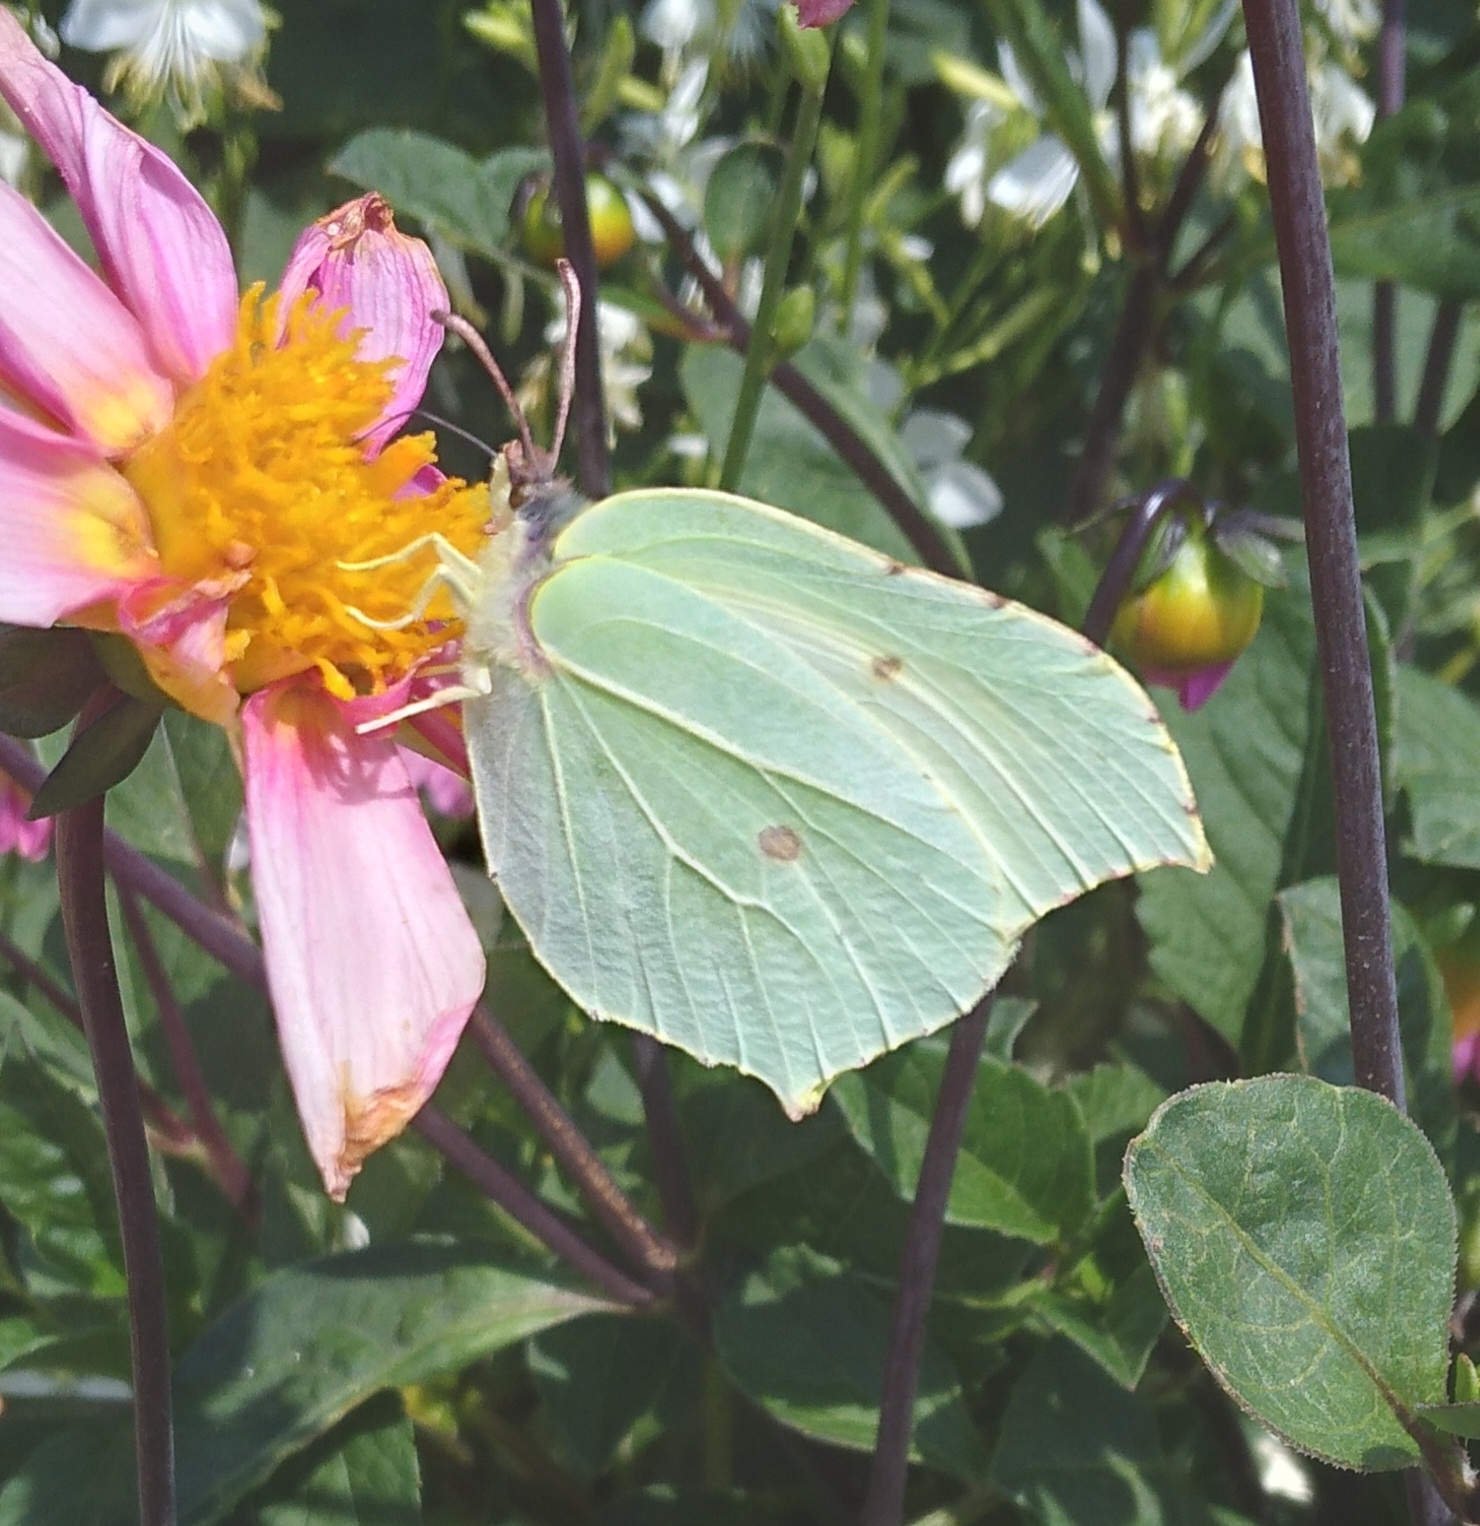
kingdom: Animalia
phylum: Arthropoda
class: Insecta
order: Lepidoptera
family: Pieridae
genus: Gonepteryx
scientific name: Gonepteryx rhamni
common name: Brimstone
